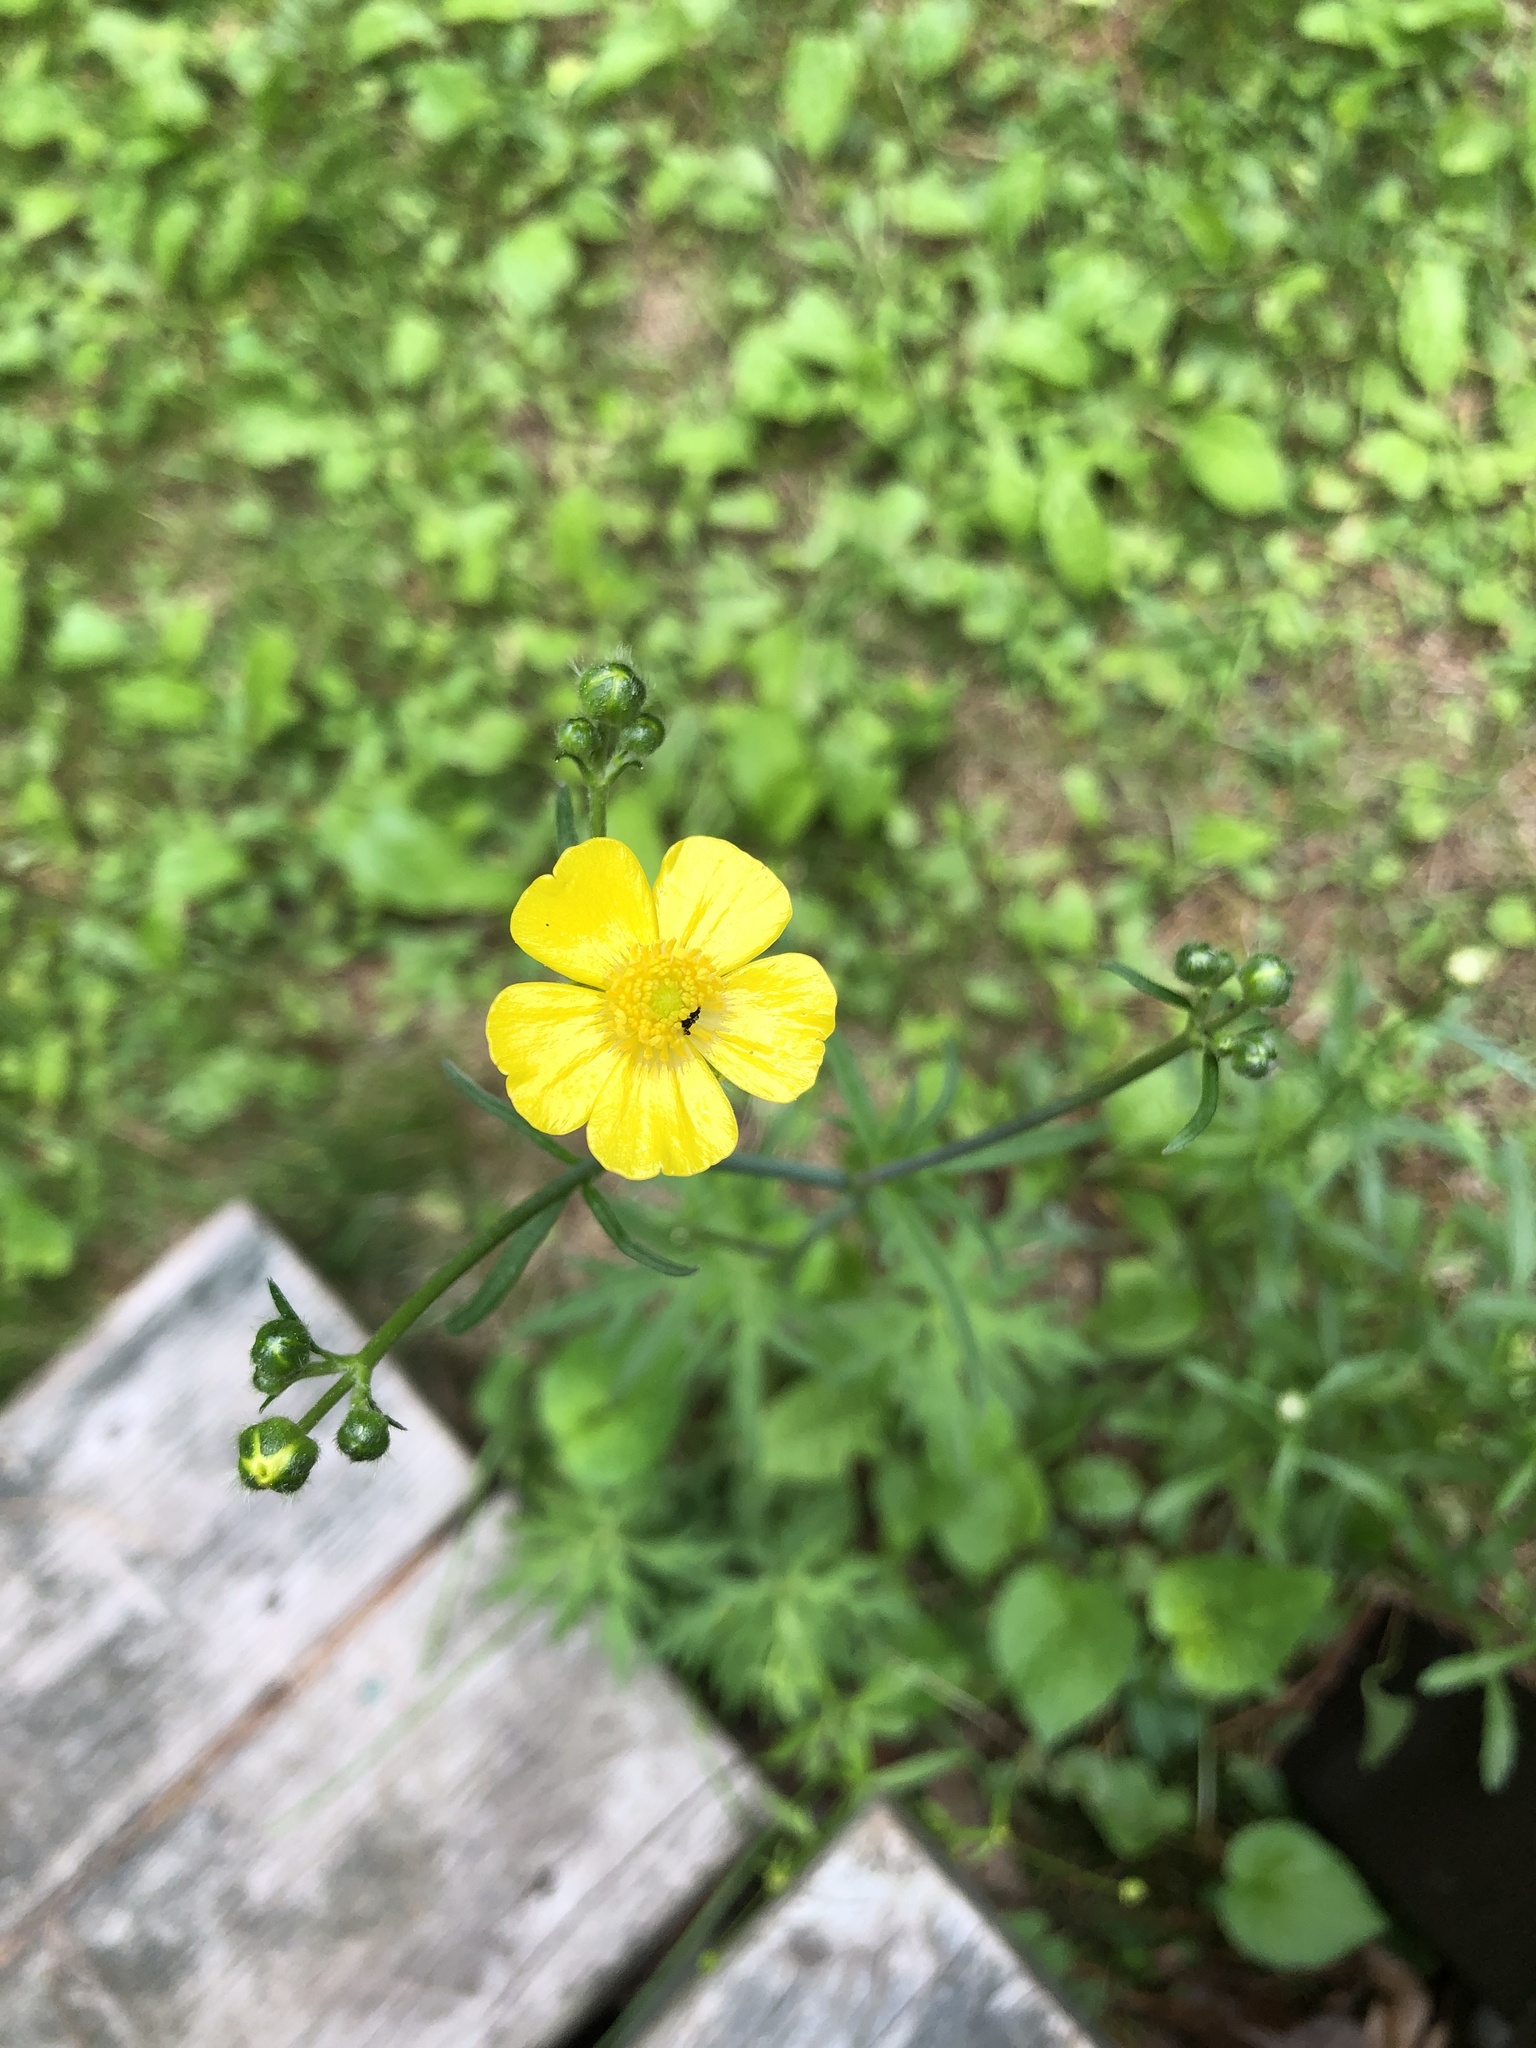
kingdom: Plantae
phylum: Tracheophyta
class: Magnoliopsida
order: Ranunculales
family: Ranunculaceae
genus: Ranunculus
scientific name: Ranunculus acris
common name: Meadow buttercup
